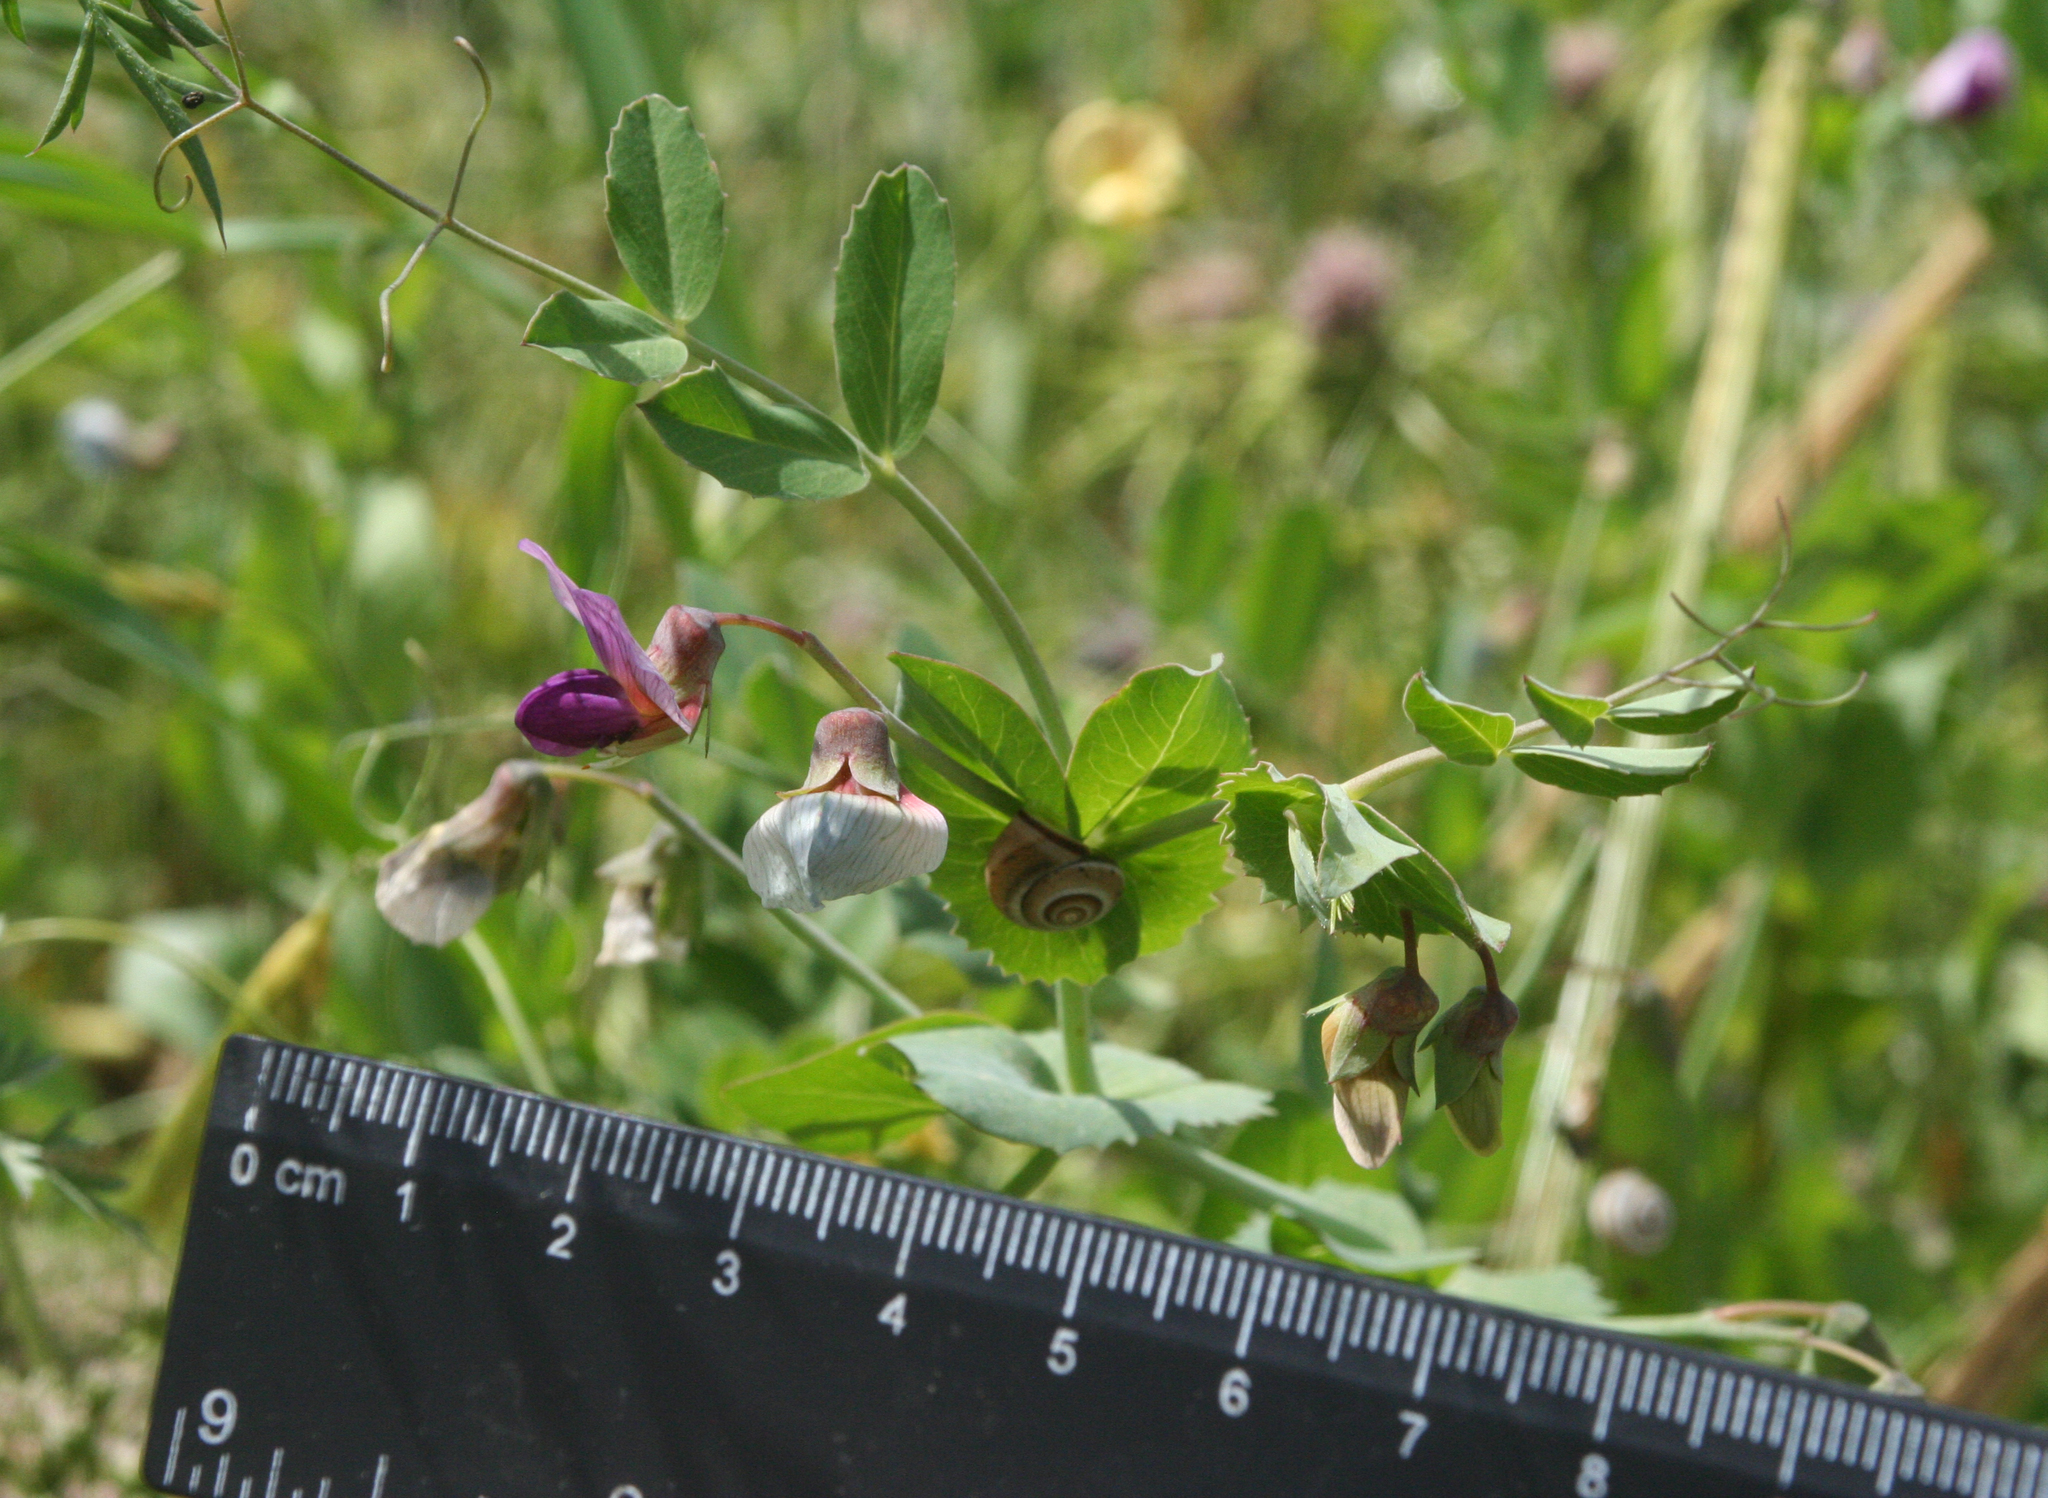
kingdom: Plantae
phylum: Tracheophyta
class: Magnoliopsida
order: Fabales
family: Fabaceae
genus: Lathyrus
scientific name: Lathyrus oleraceus
